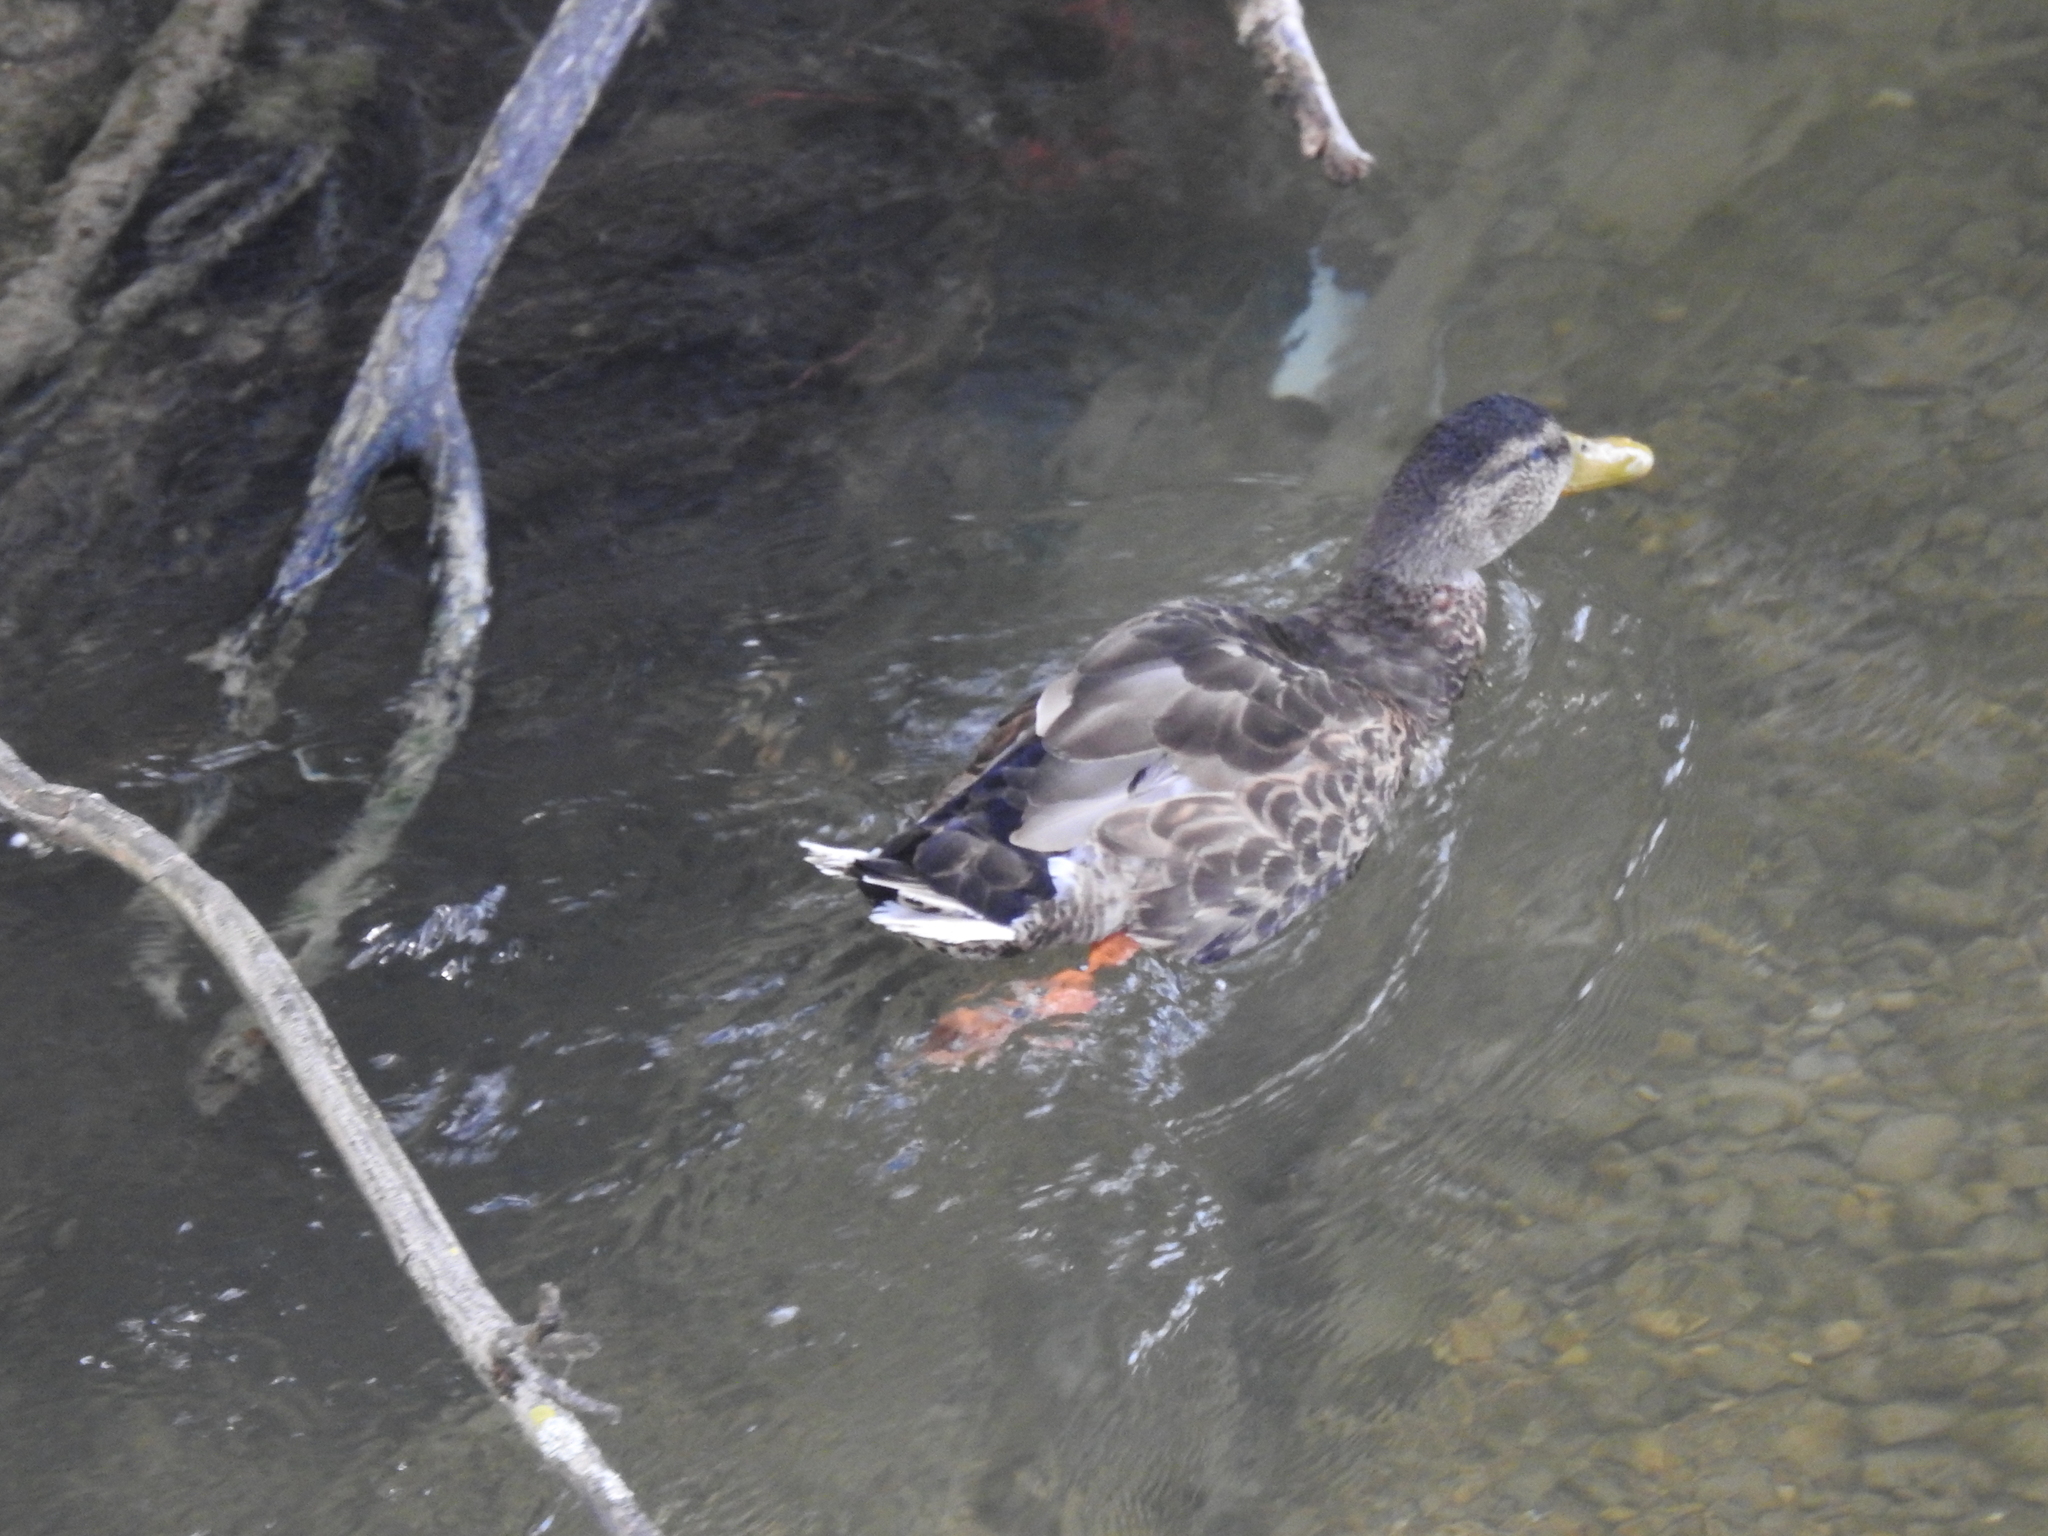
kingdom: Animalia
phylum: Chordata
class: Aves
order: Anseriformes
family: Anatidae
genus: Anas
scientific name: Anas platyrhynchos
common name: Mallard
